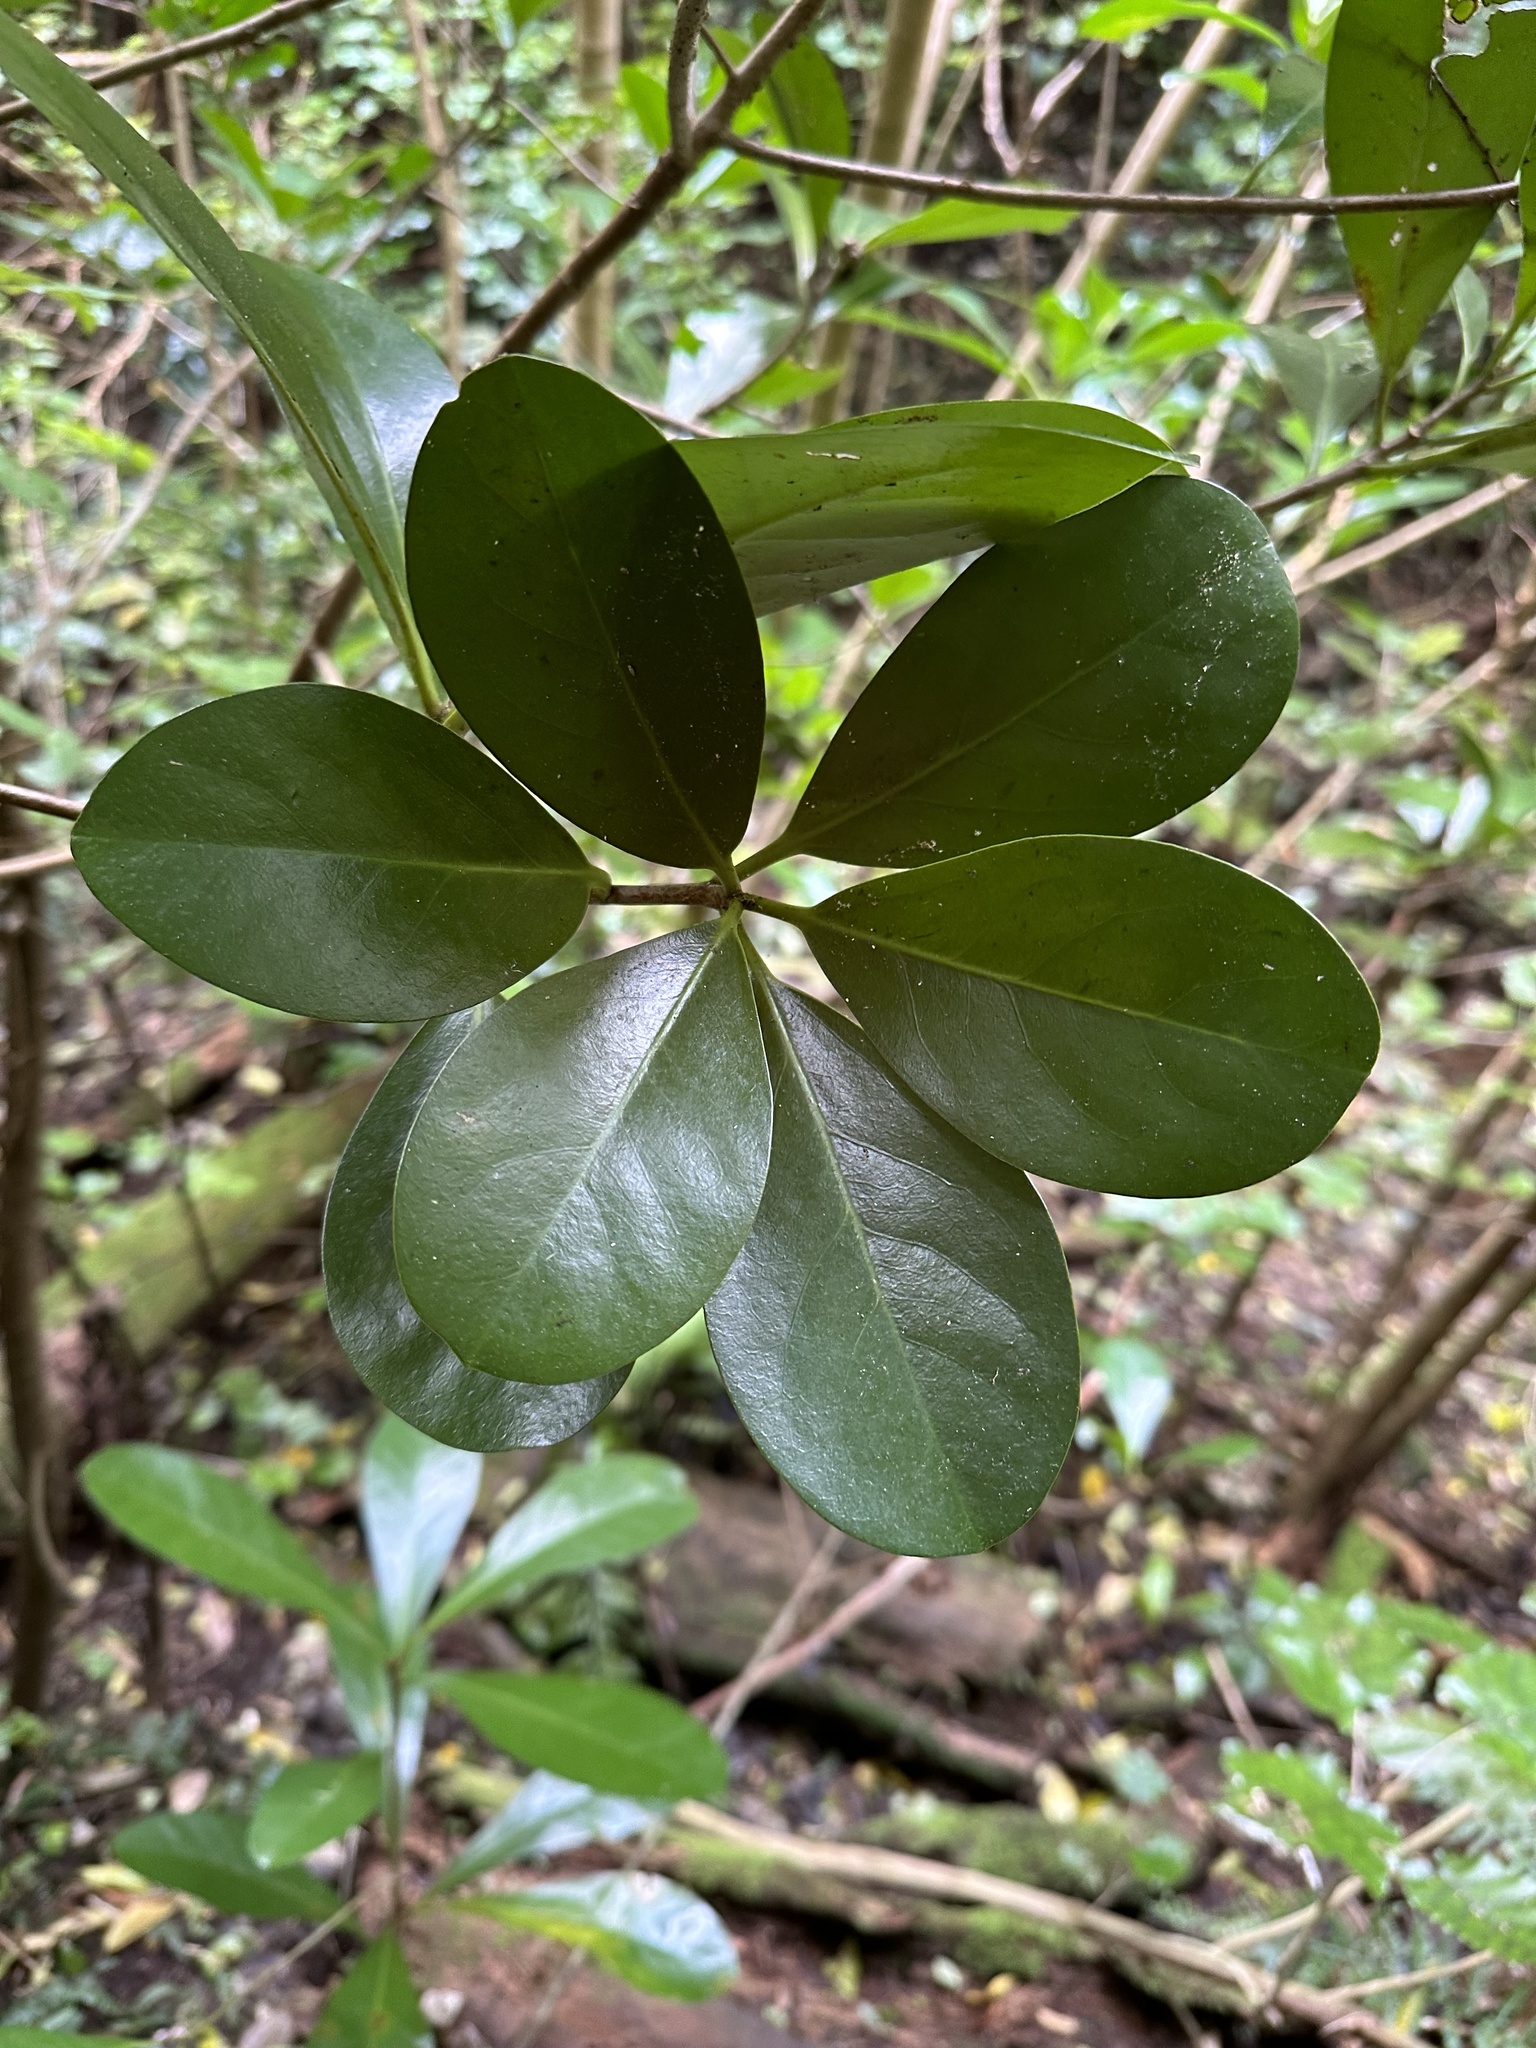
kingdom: Plantae
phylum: Tracheophyta
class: Magnoliopsida
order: Cucurbitales
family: Corynocarpaceae
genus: Corynocarpus
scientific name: Corynocarpus laevigatus
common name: New zealand laurel
